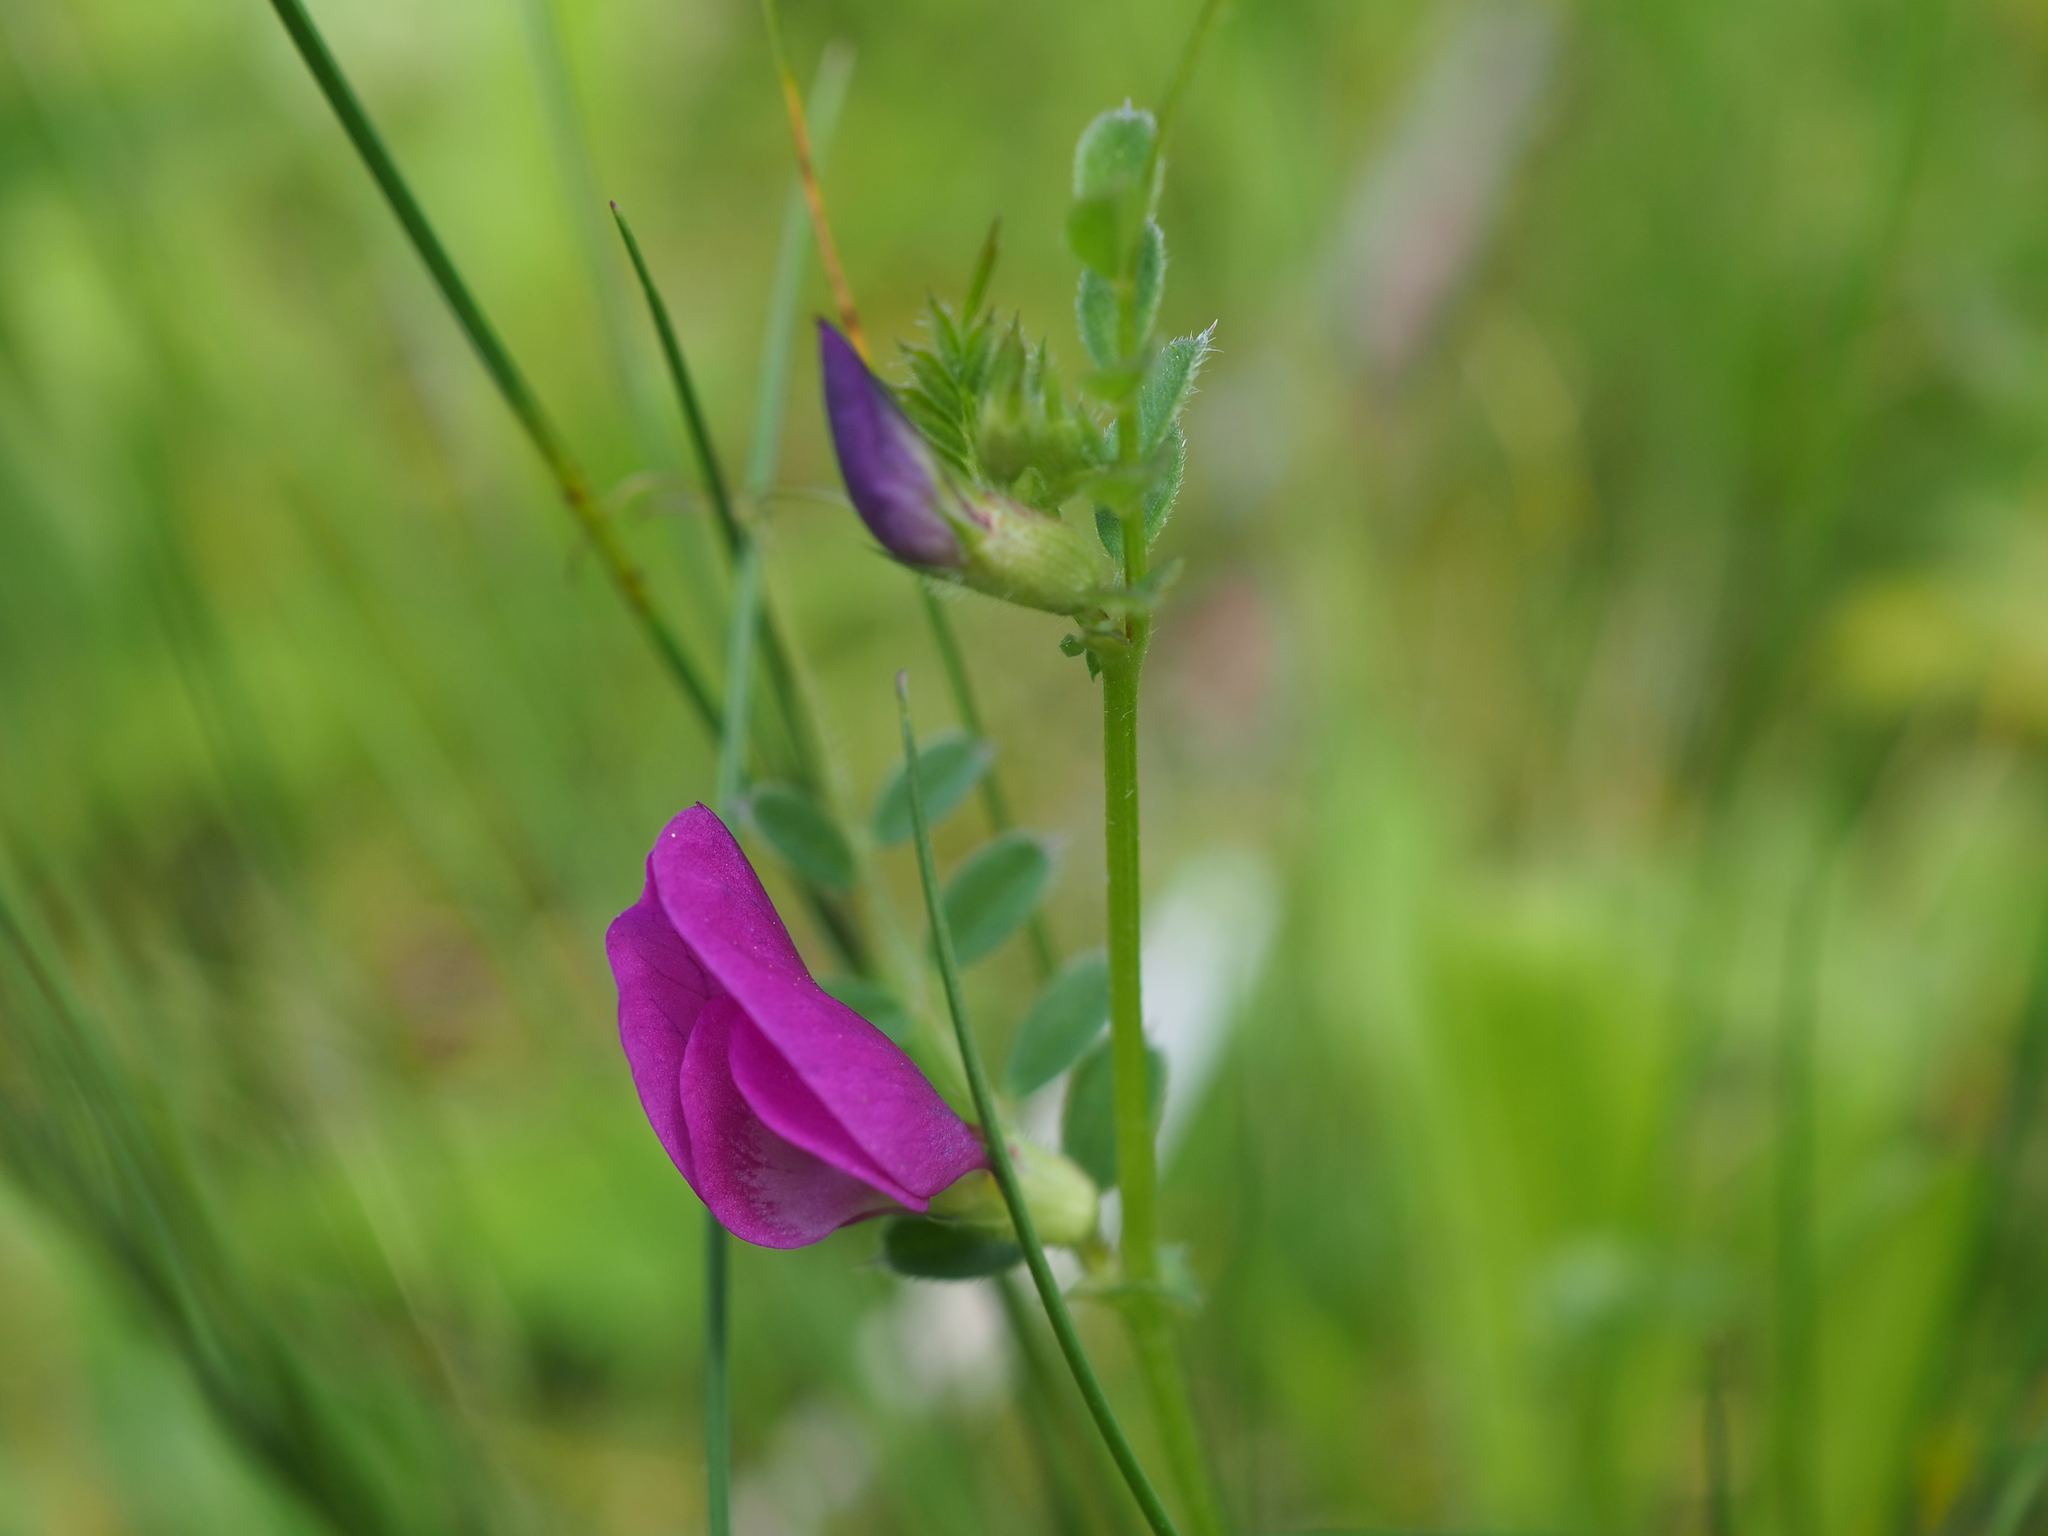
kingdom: Plantae
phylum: Tracheophyta
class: Magnoliopsida
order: Fabales
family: Fabaceae
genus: Vicia
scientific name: Vicia sativa
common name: Garden vetch
